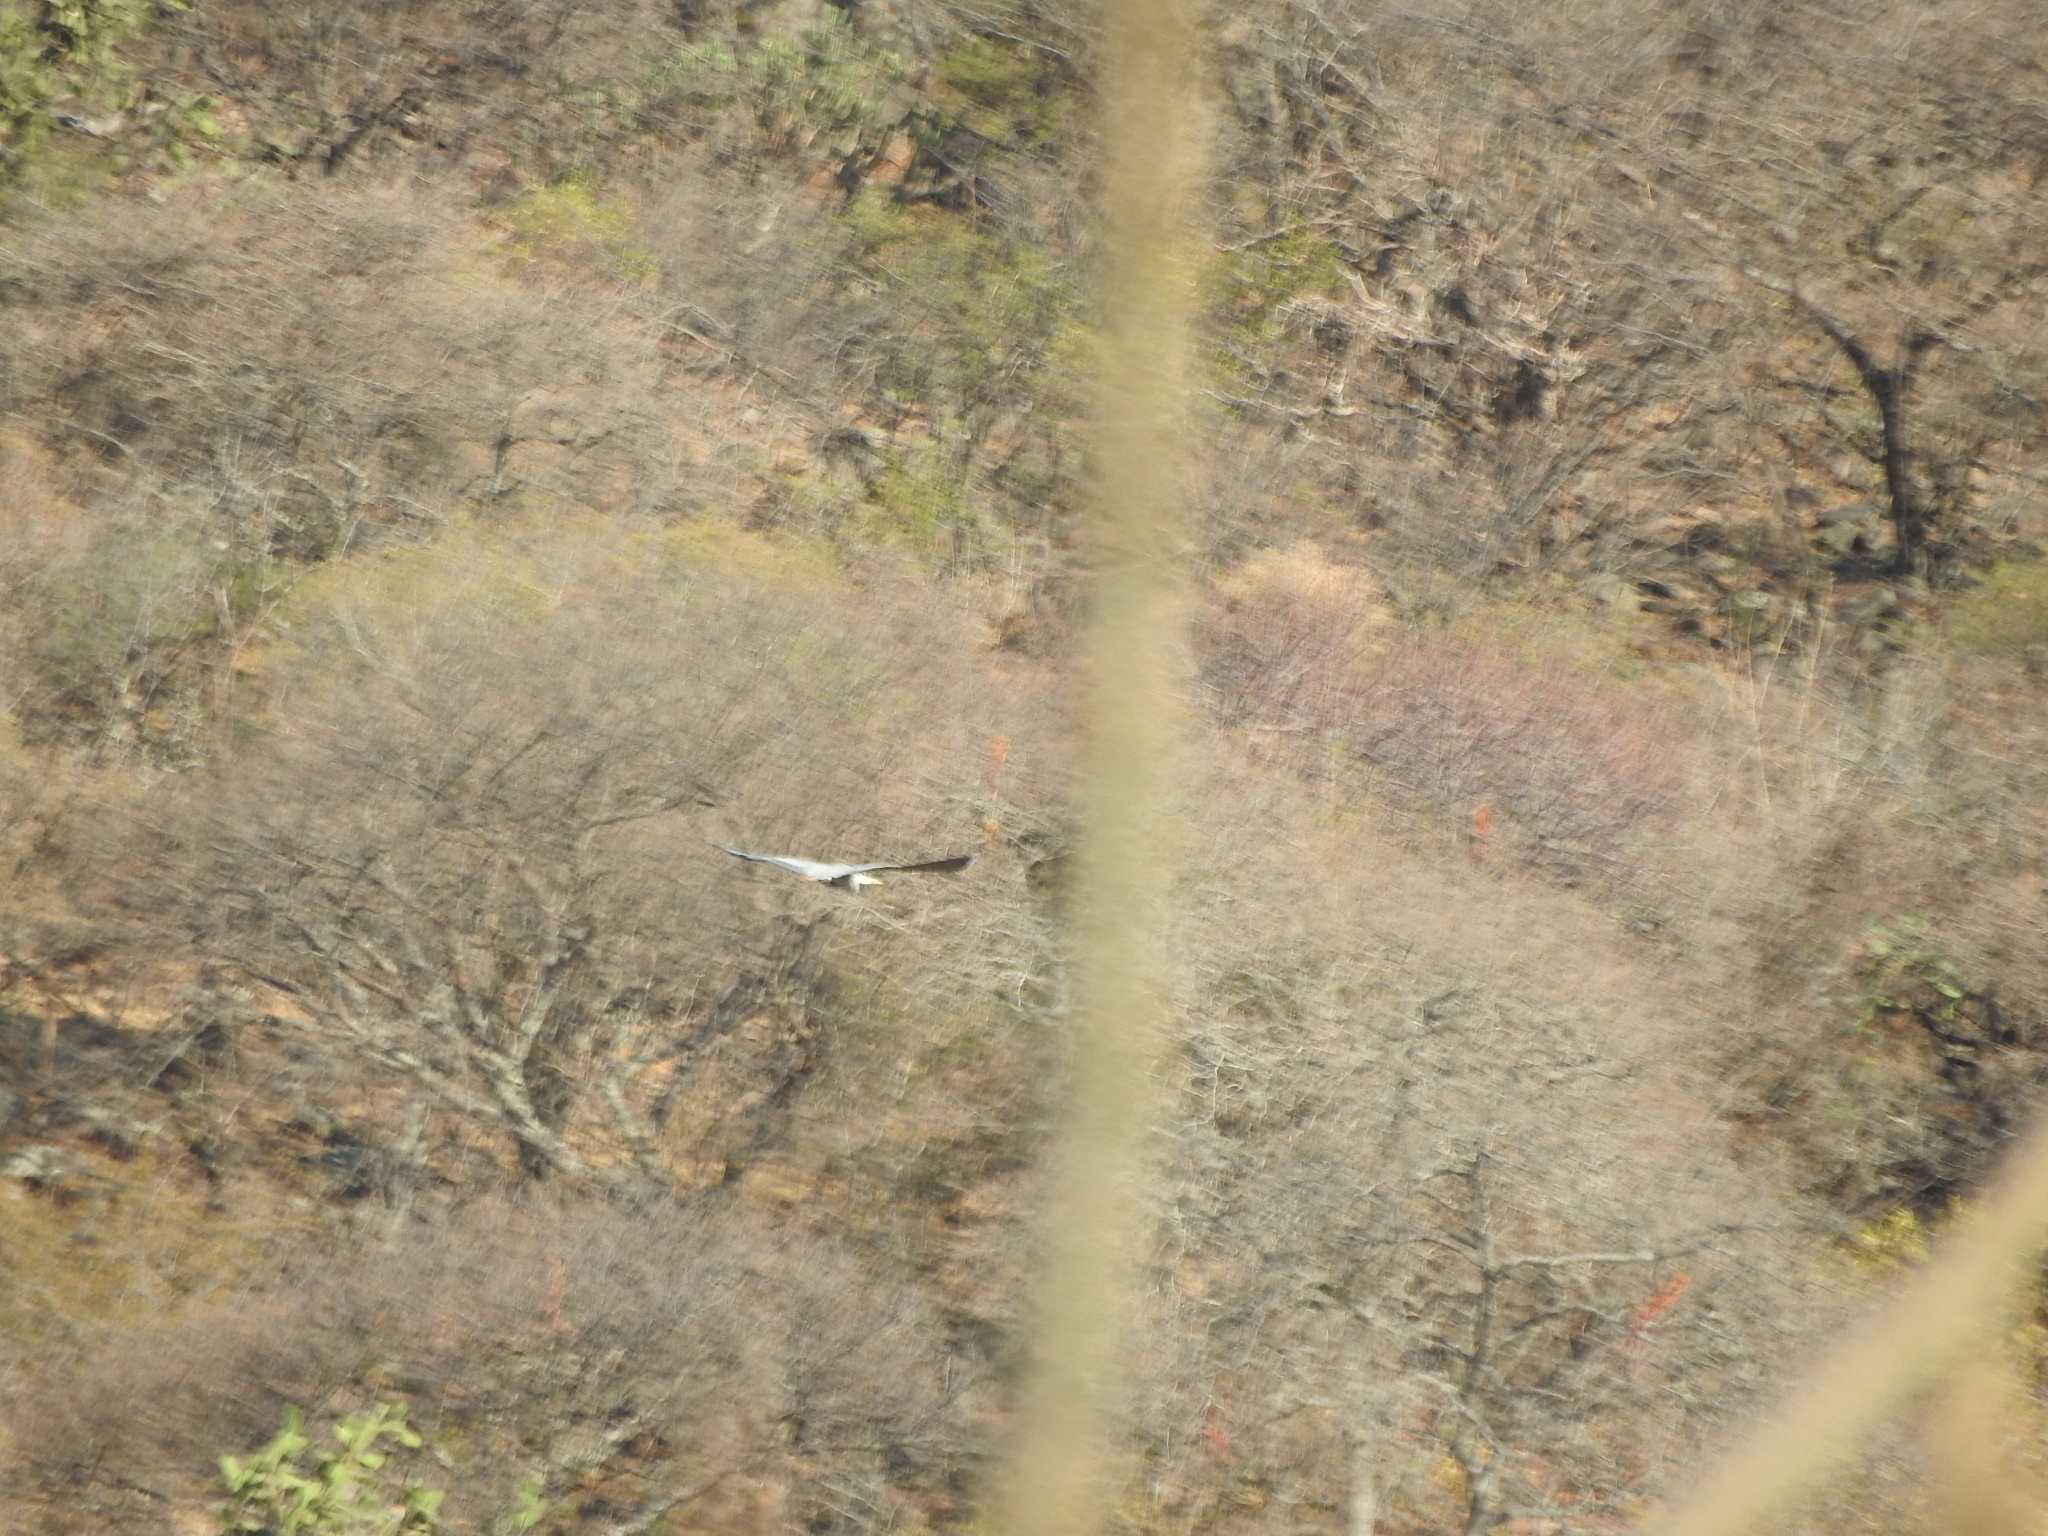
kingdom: Animalia
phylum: Chordata
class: Aves
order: Pelecaniformes
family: Ardeidae
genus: Ardea
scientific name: Ardea herodias
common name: Great blue heron
